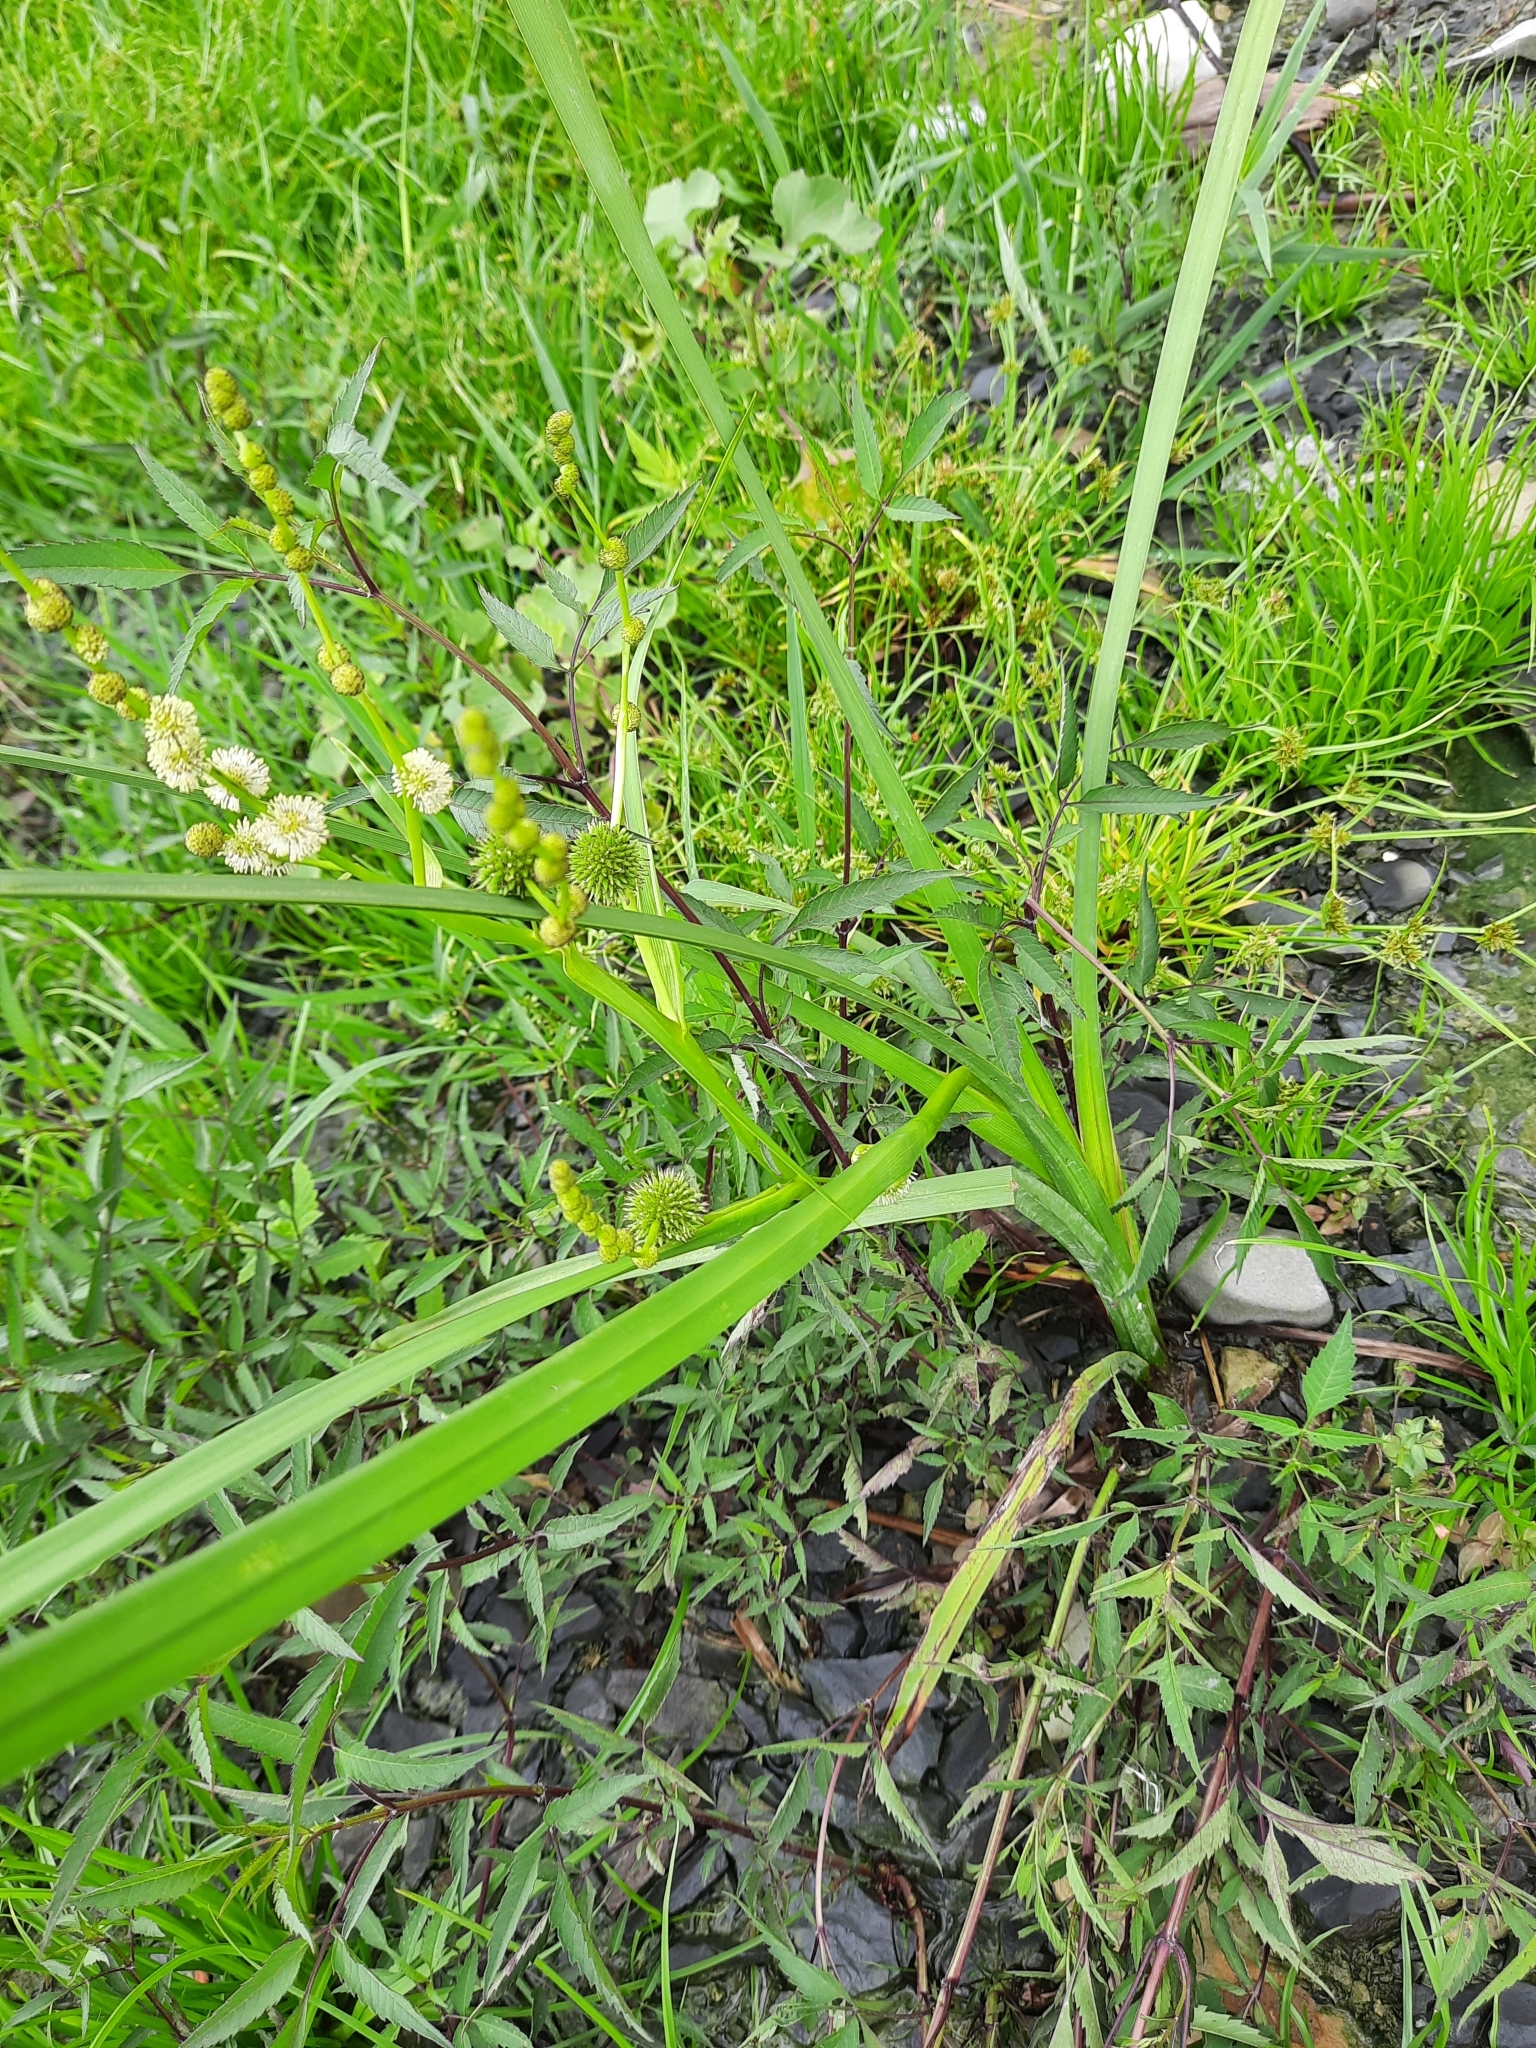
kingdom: Plantae
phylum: Tracheophyta
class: Liliopsida
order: Poales
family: Typhaceae
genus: Sparganium
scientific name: Sparganium erectum
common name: Branched bur-reed
